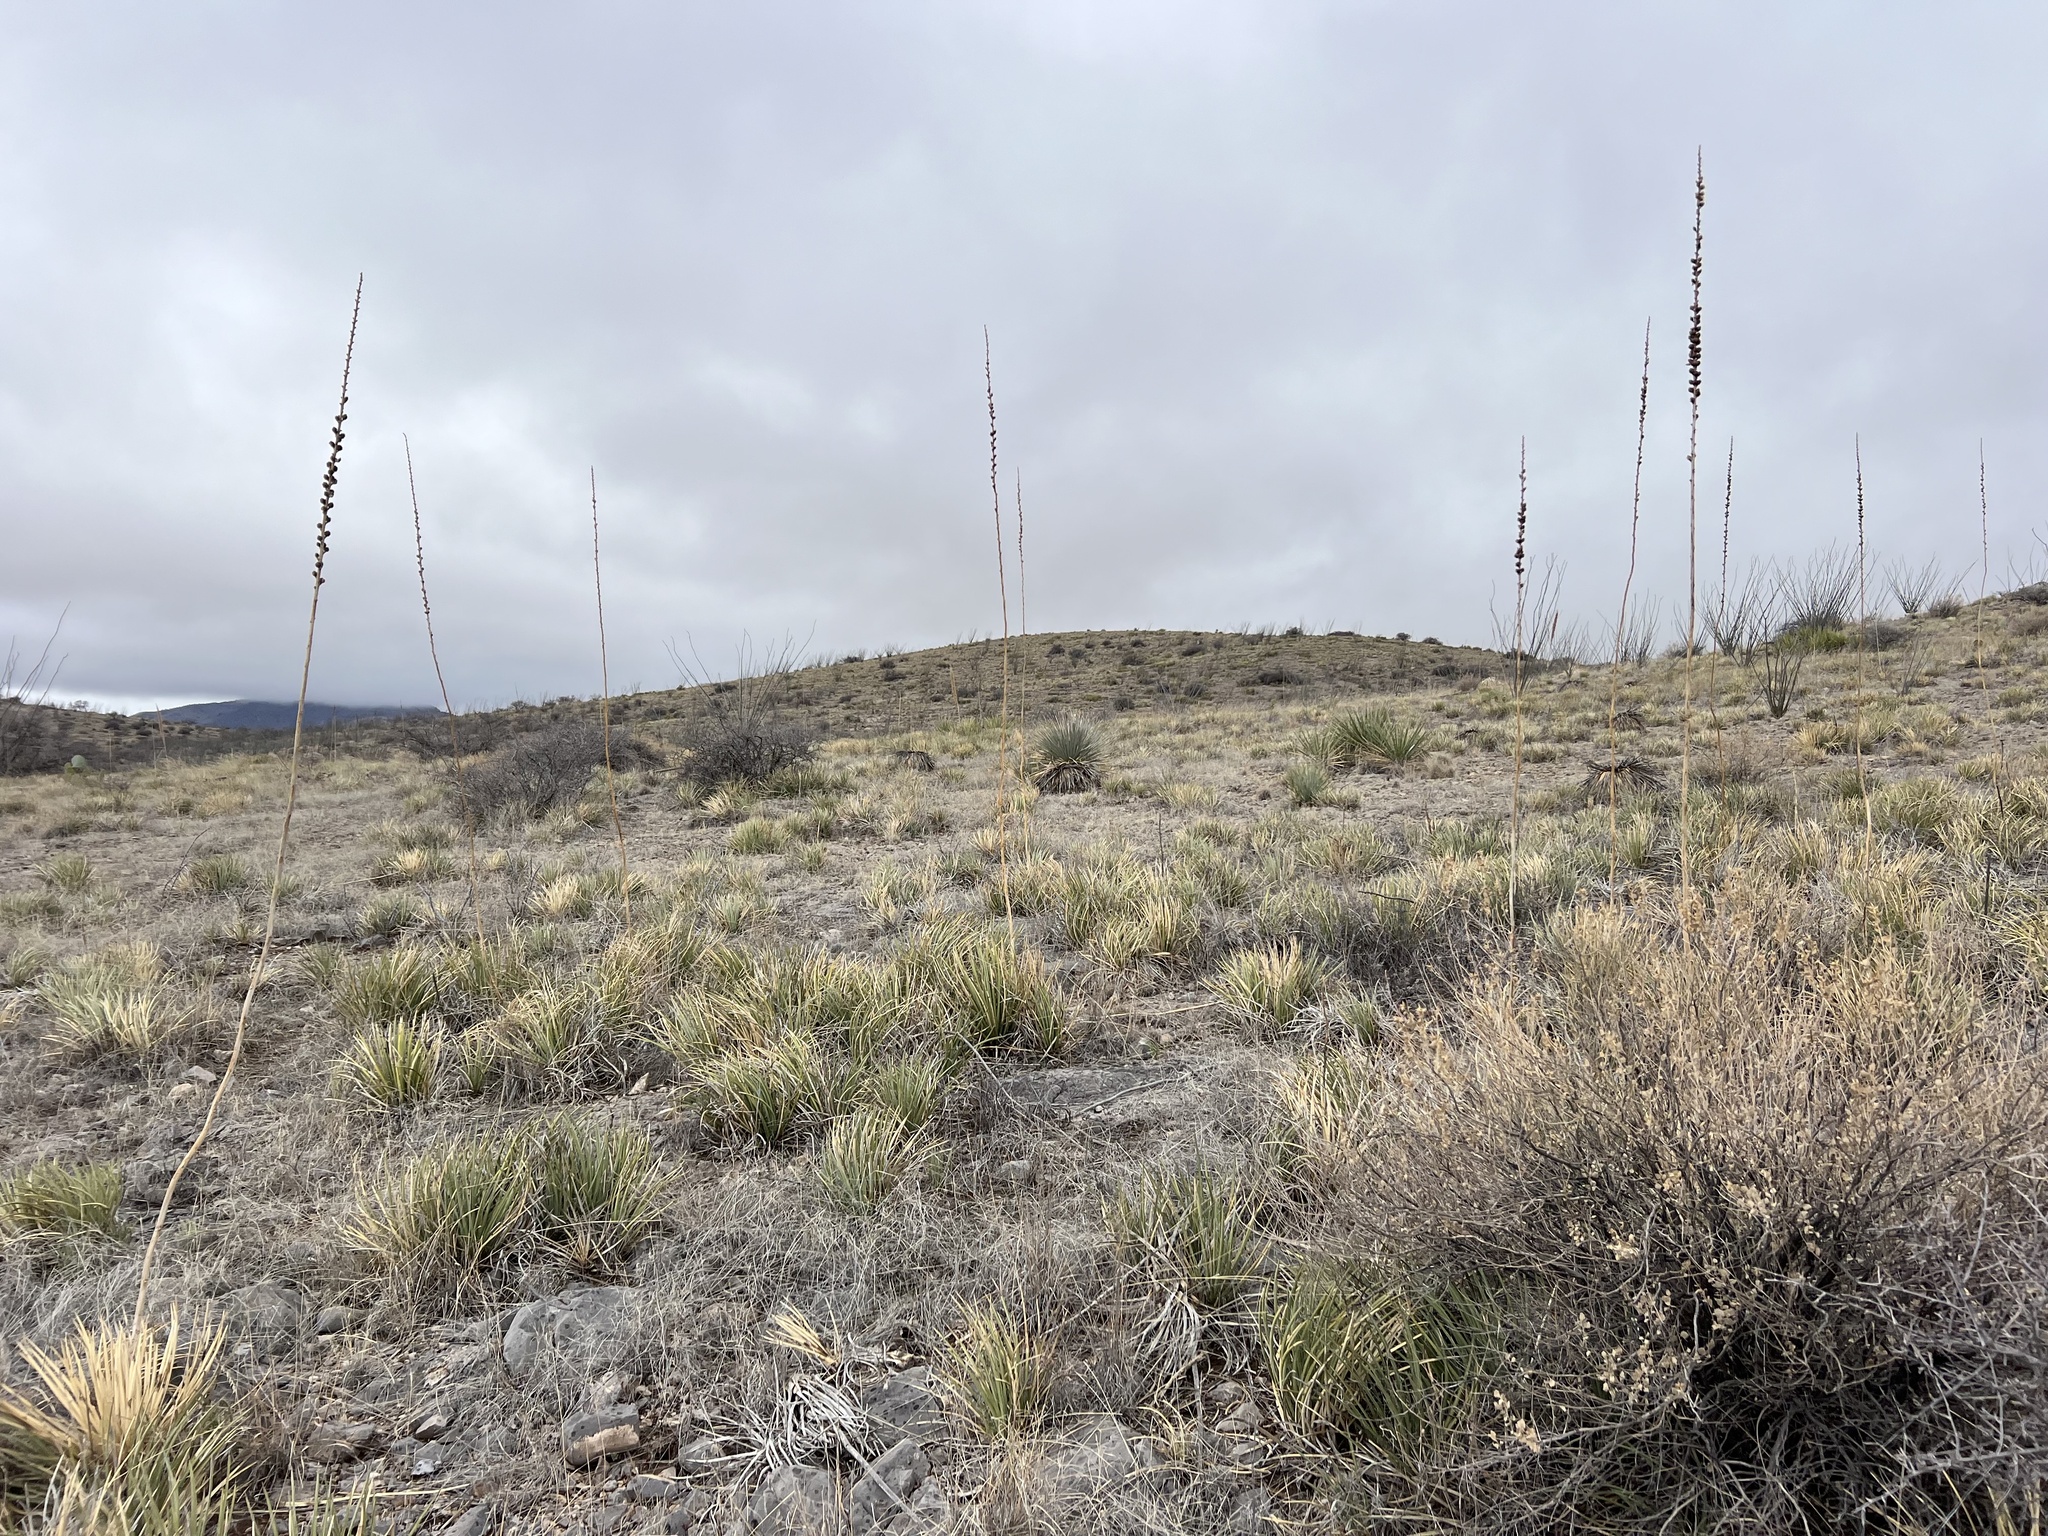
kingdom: Plantae
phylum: Tracheophyta
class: Liliopsida
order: Asparagales
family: Asparagaceae
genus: Agave
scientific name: Agave schottii
